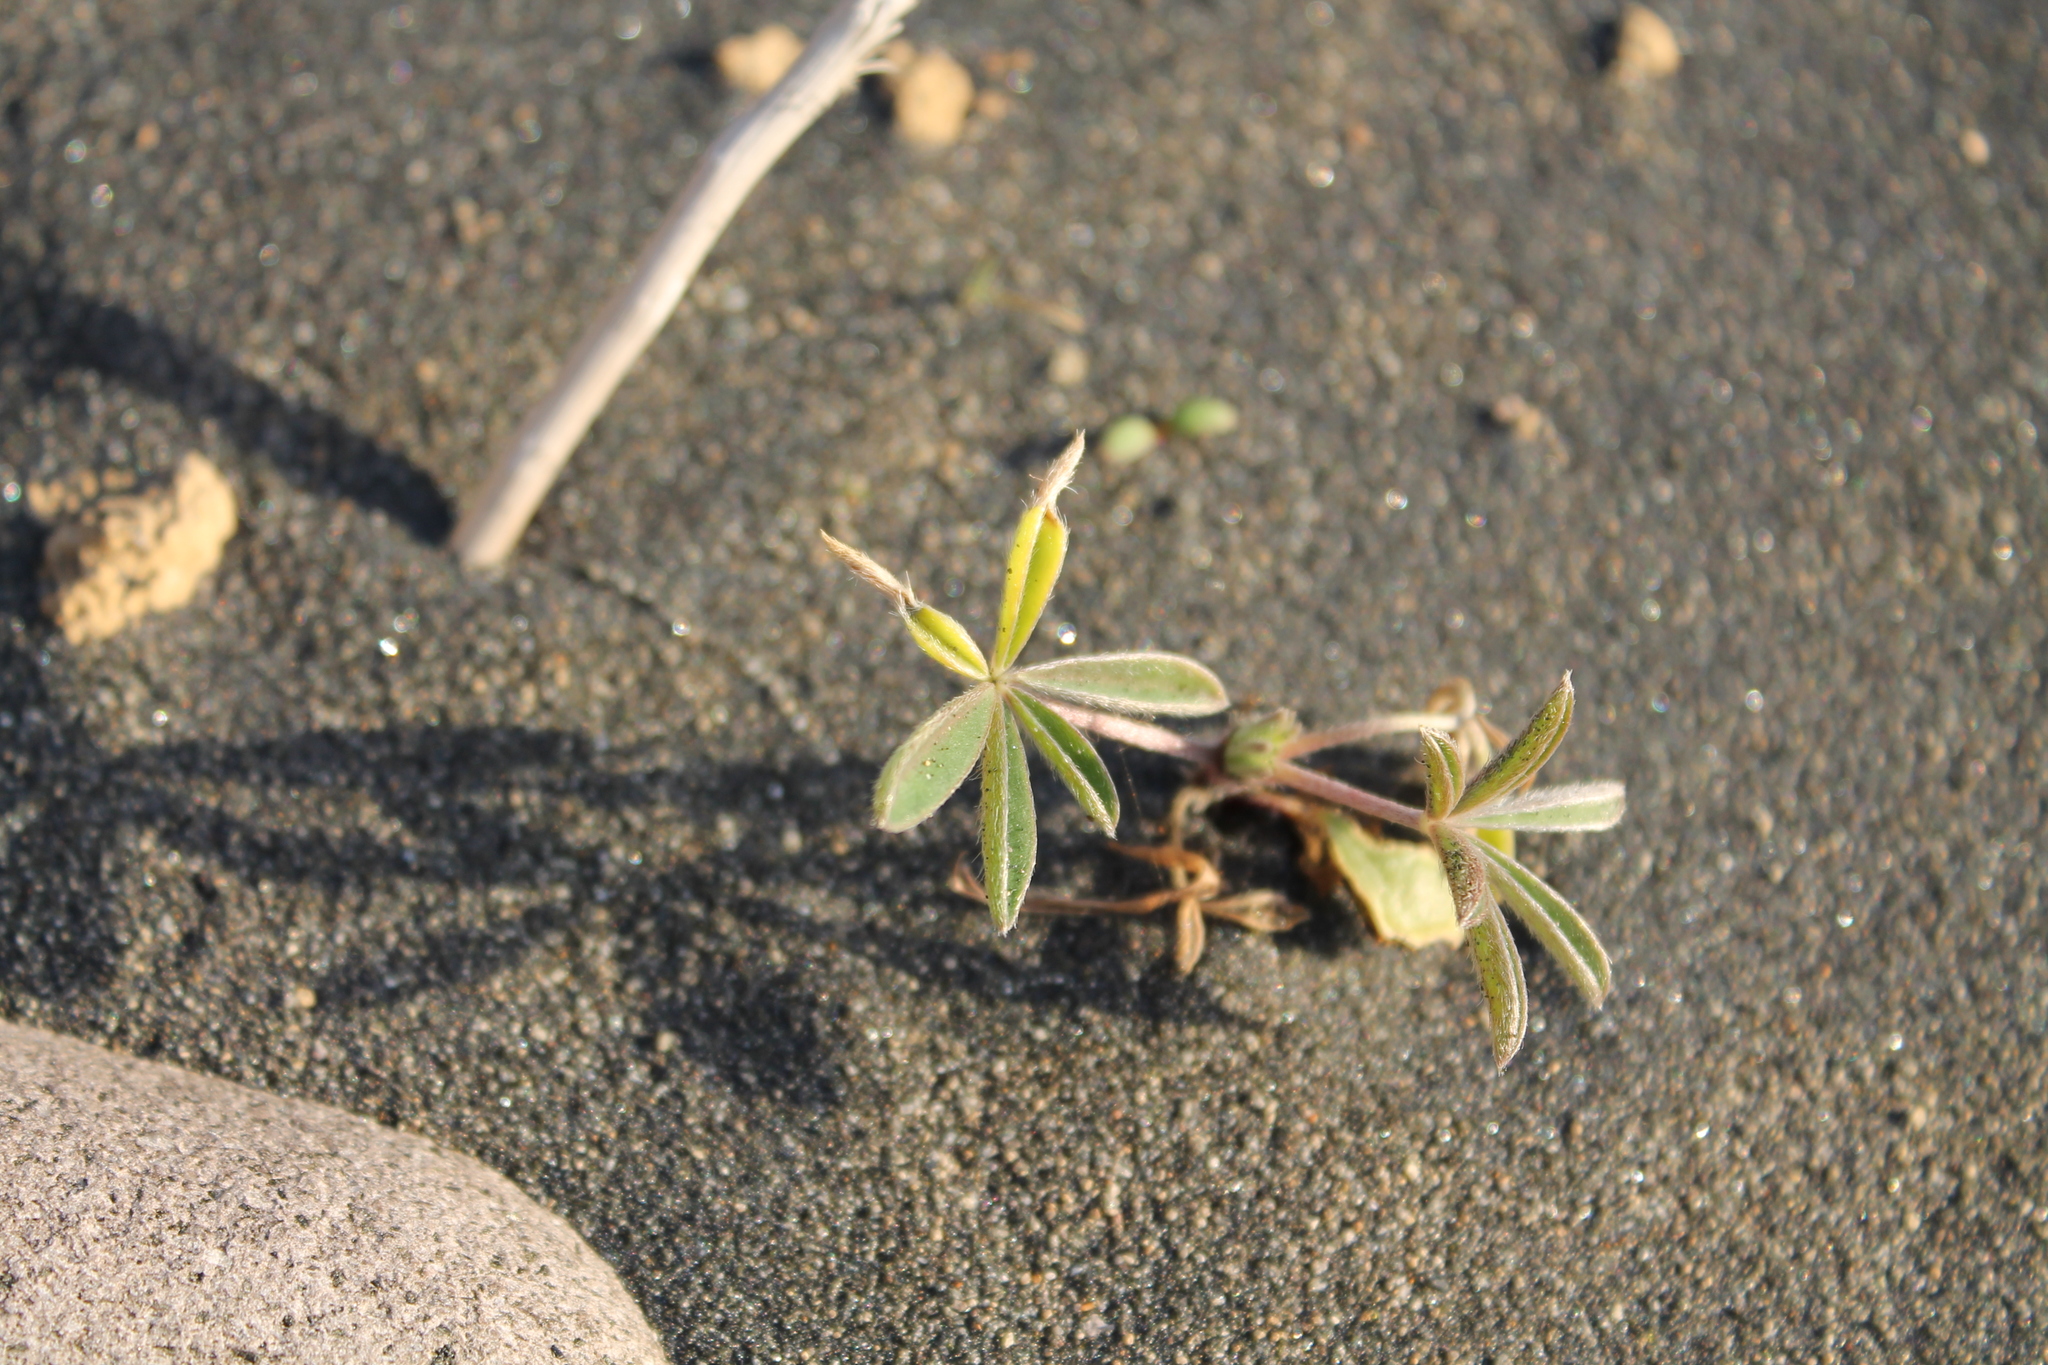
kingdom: Plantae
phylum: Tracheophyta
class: Magnoliopsida
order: Fabales
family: Fabaceae
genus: Lupinus
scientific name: Lupinus arboreus
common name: Yellow bush lupine
